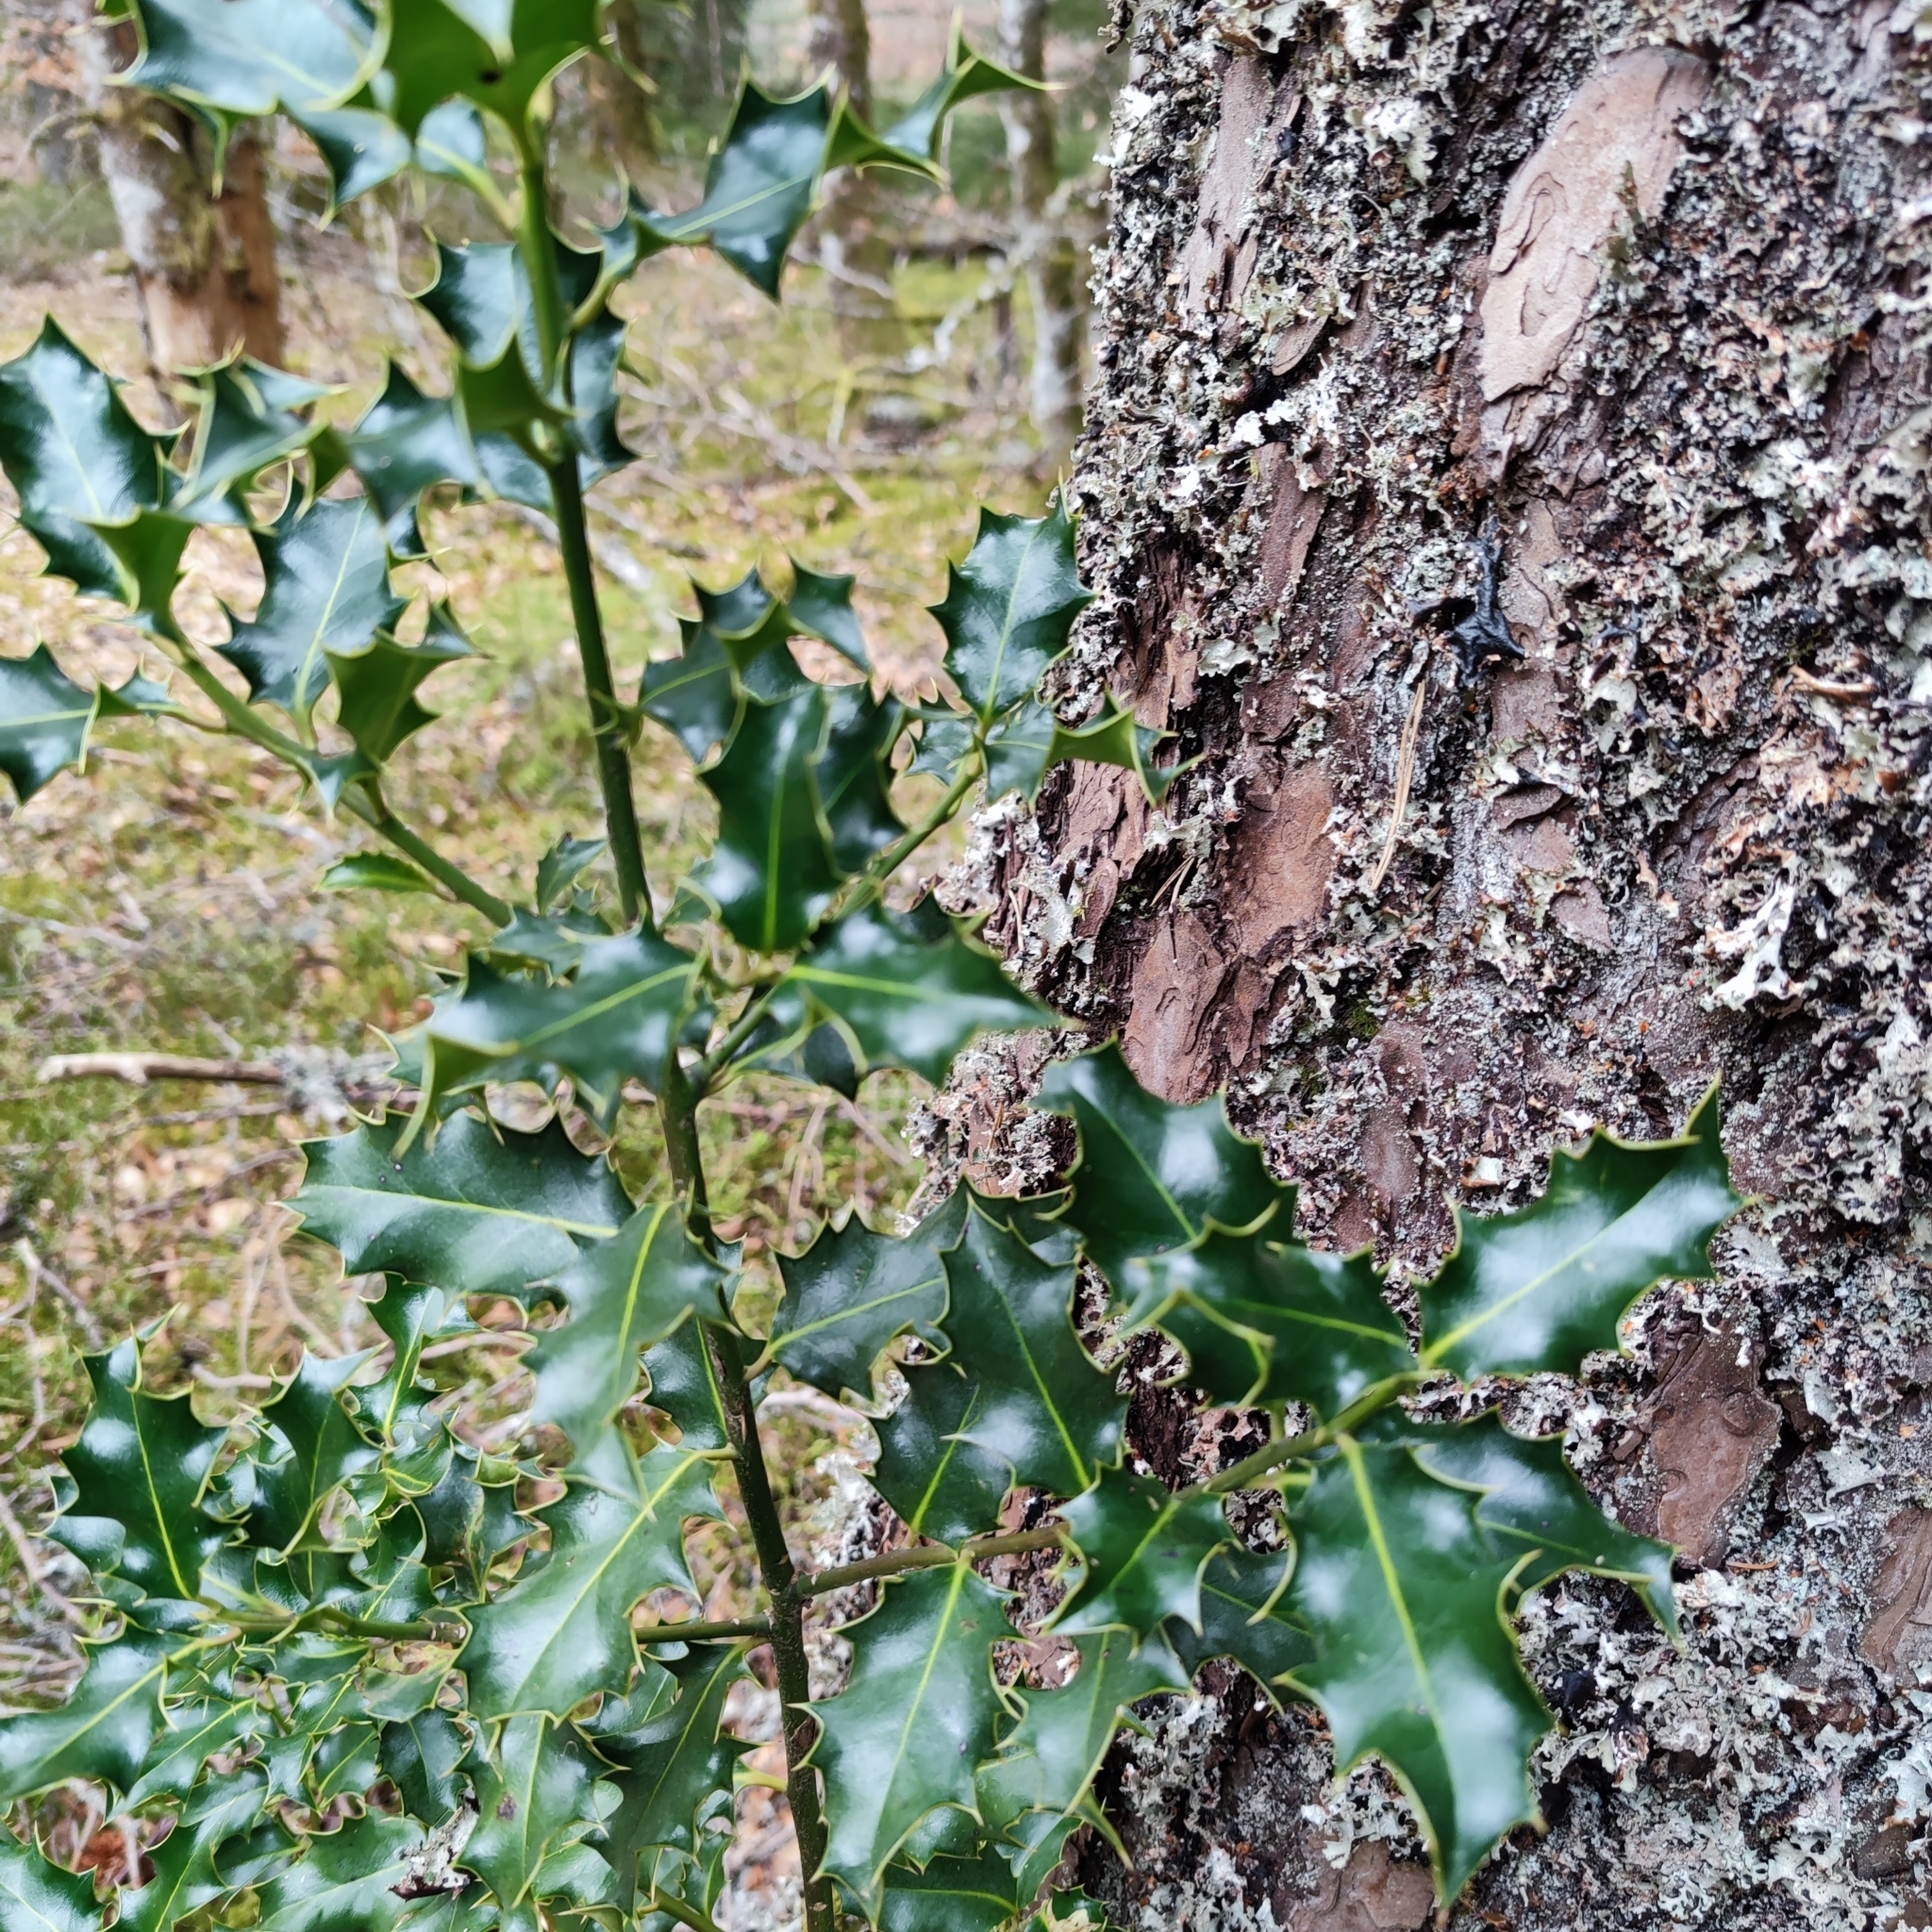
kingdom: Plantae
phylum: Tracheophyta
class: Magnoliopsida
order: Aquifoliales
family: Aquifoliaceae
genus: Ilex
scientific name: Ilex aquifolium
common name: English holly
